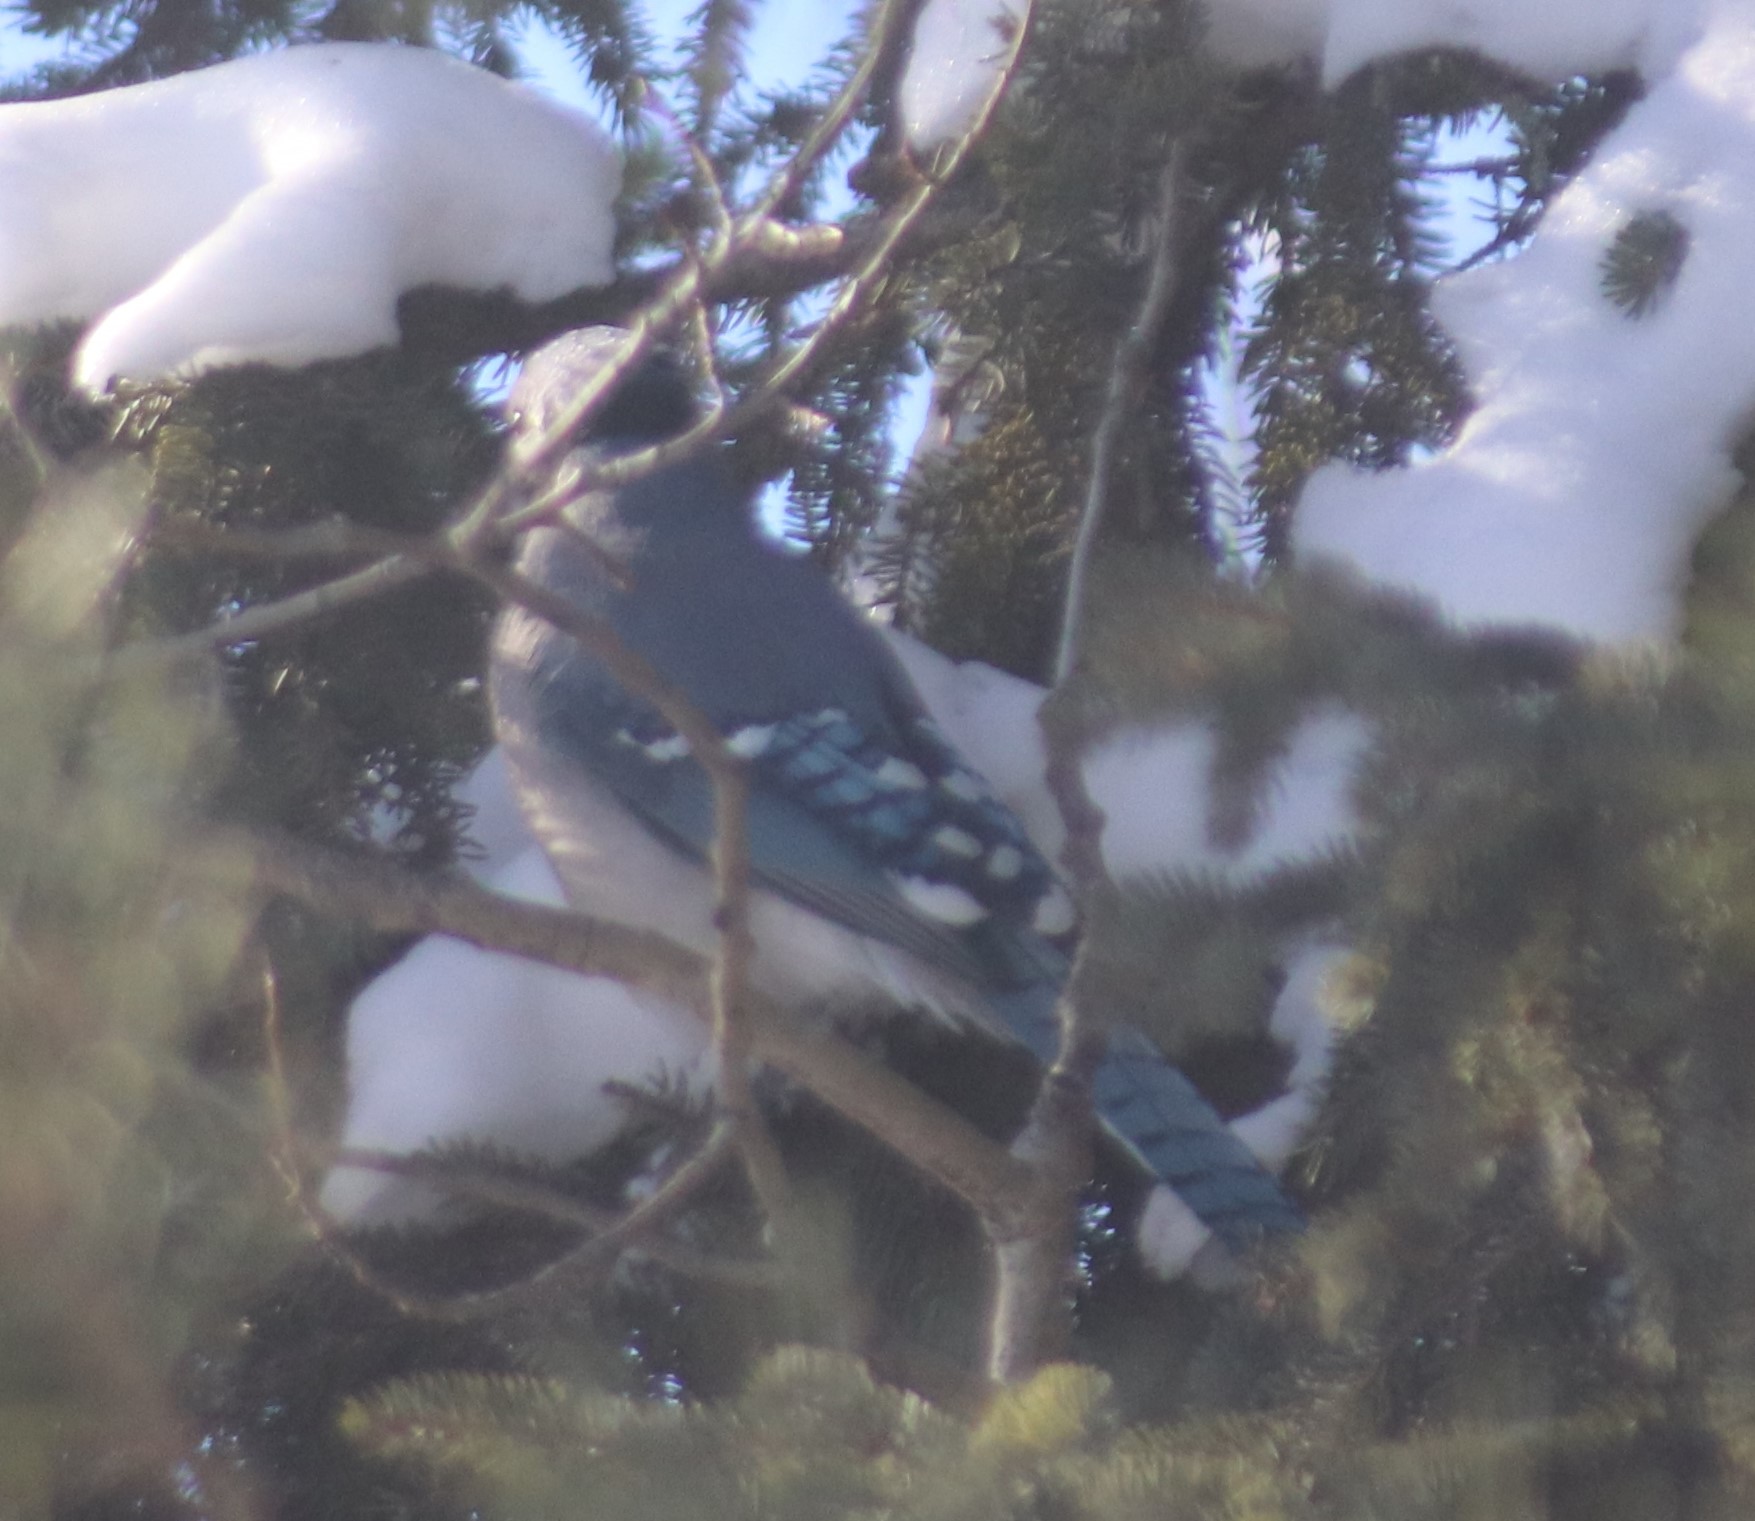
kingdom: Animalia
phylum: Chordata
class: Aves
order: Passeriformes
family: Corvidae
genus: Cyanocitta
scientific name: Cyanocitta cristata
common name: Blue jay
